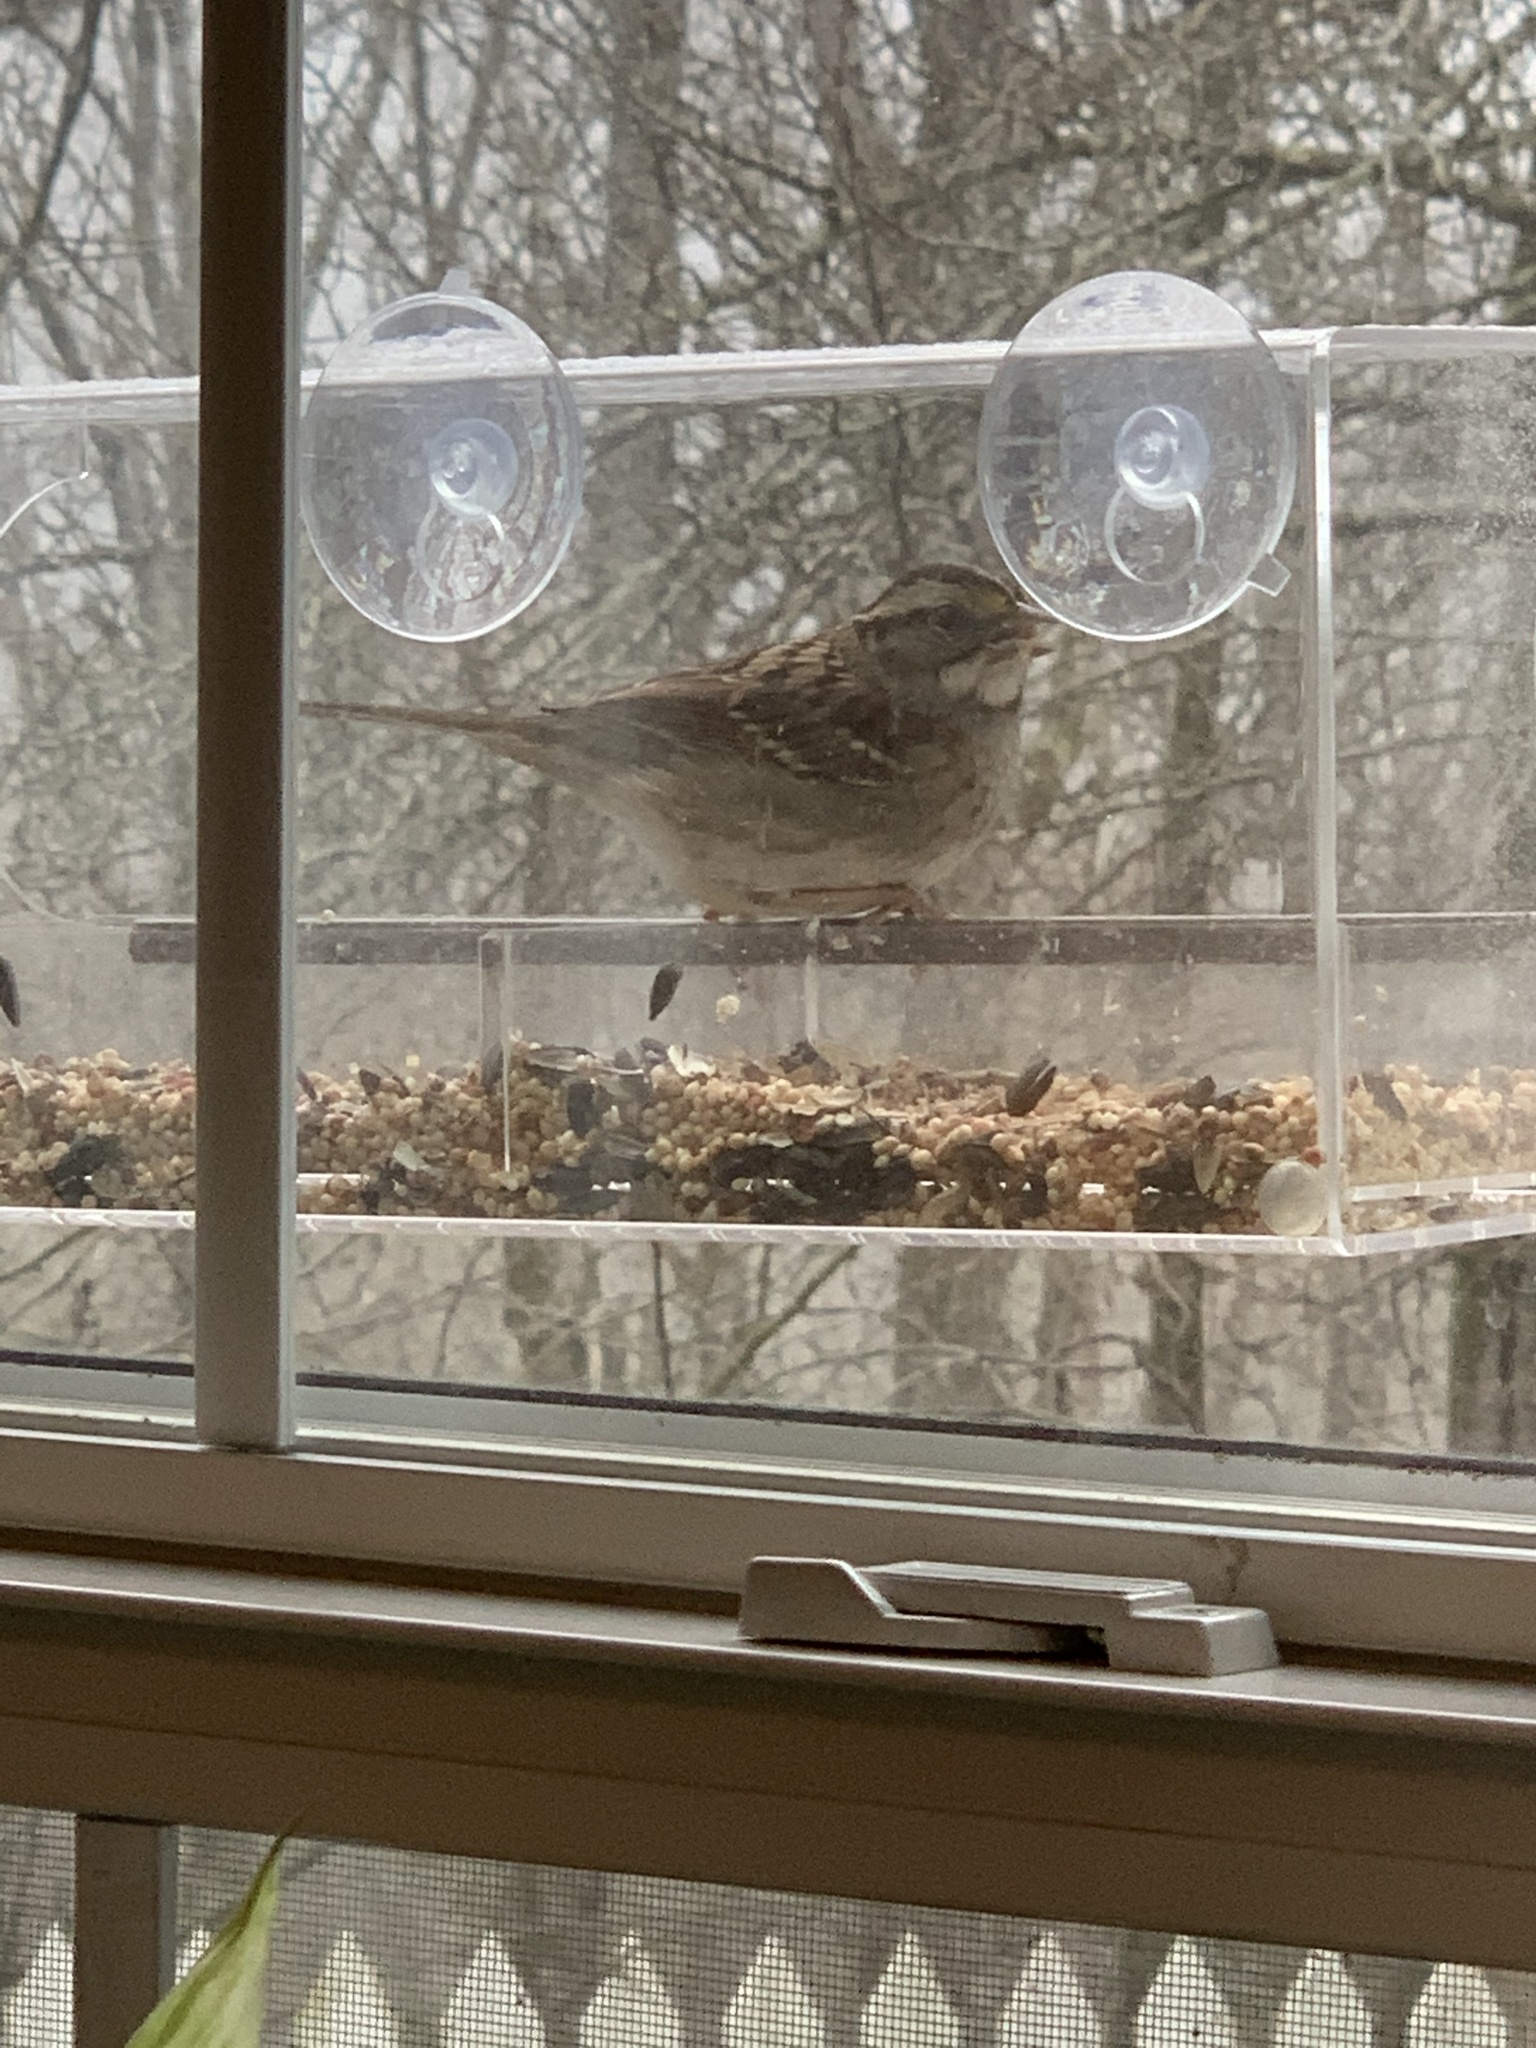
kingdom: Animalia
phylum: Chordata
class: Aves
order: Passeriformes
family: Passerellidae
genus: Zonotrichia
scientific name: Zonotrichia albicollis
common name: White-throated sparrow
